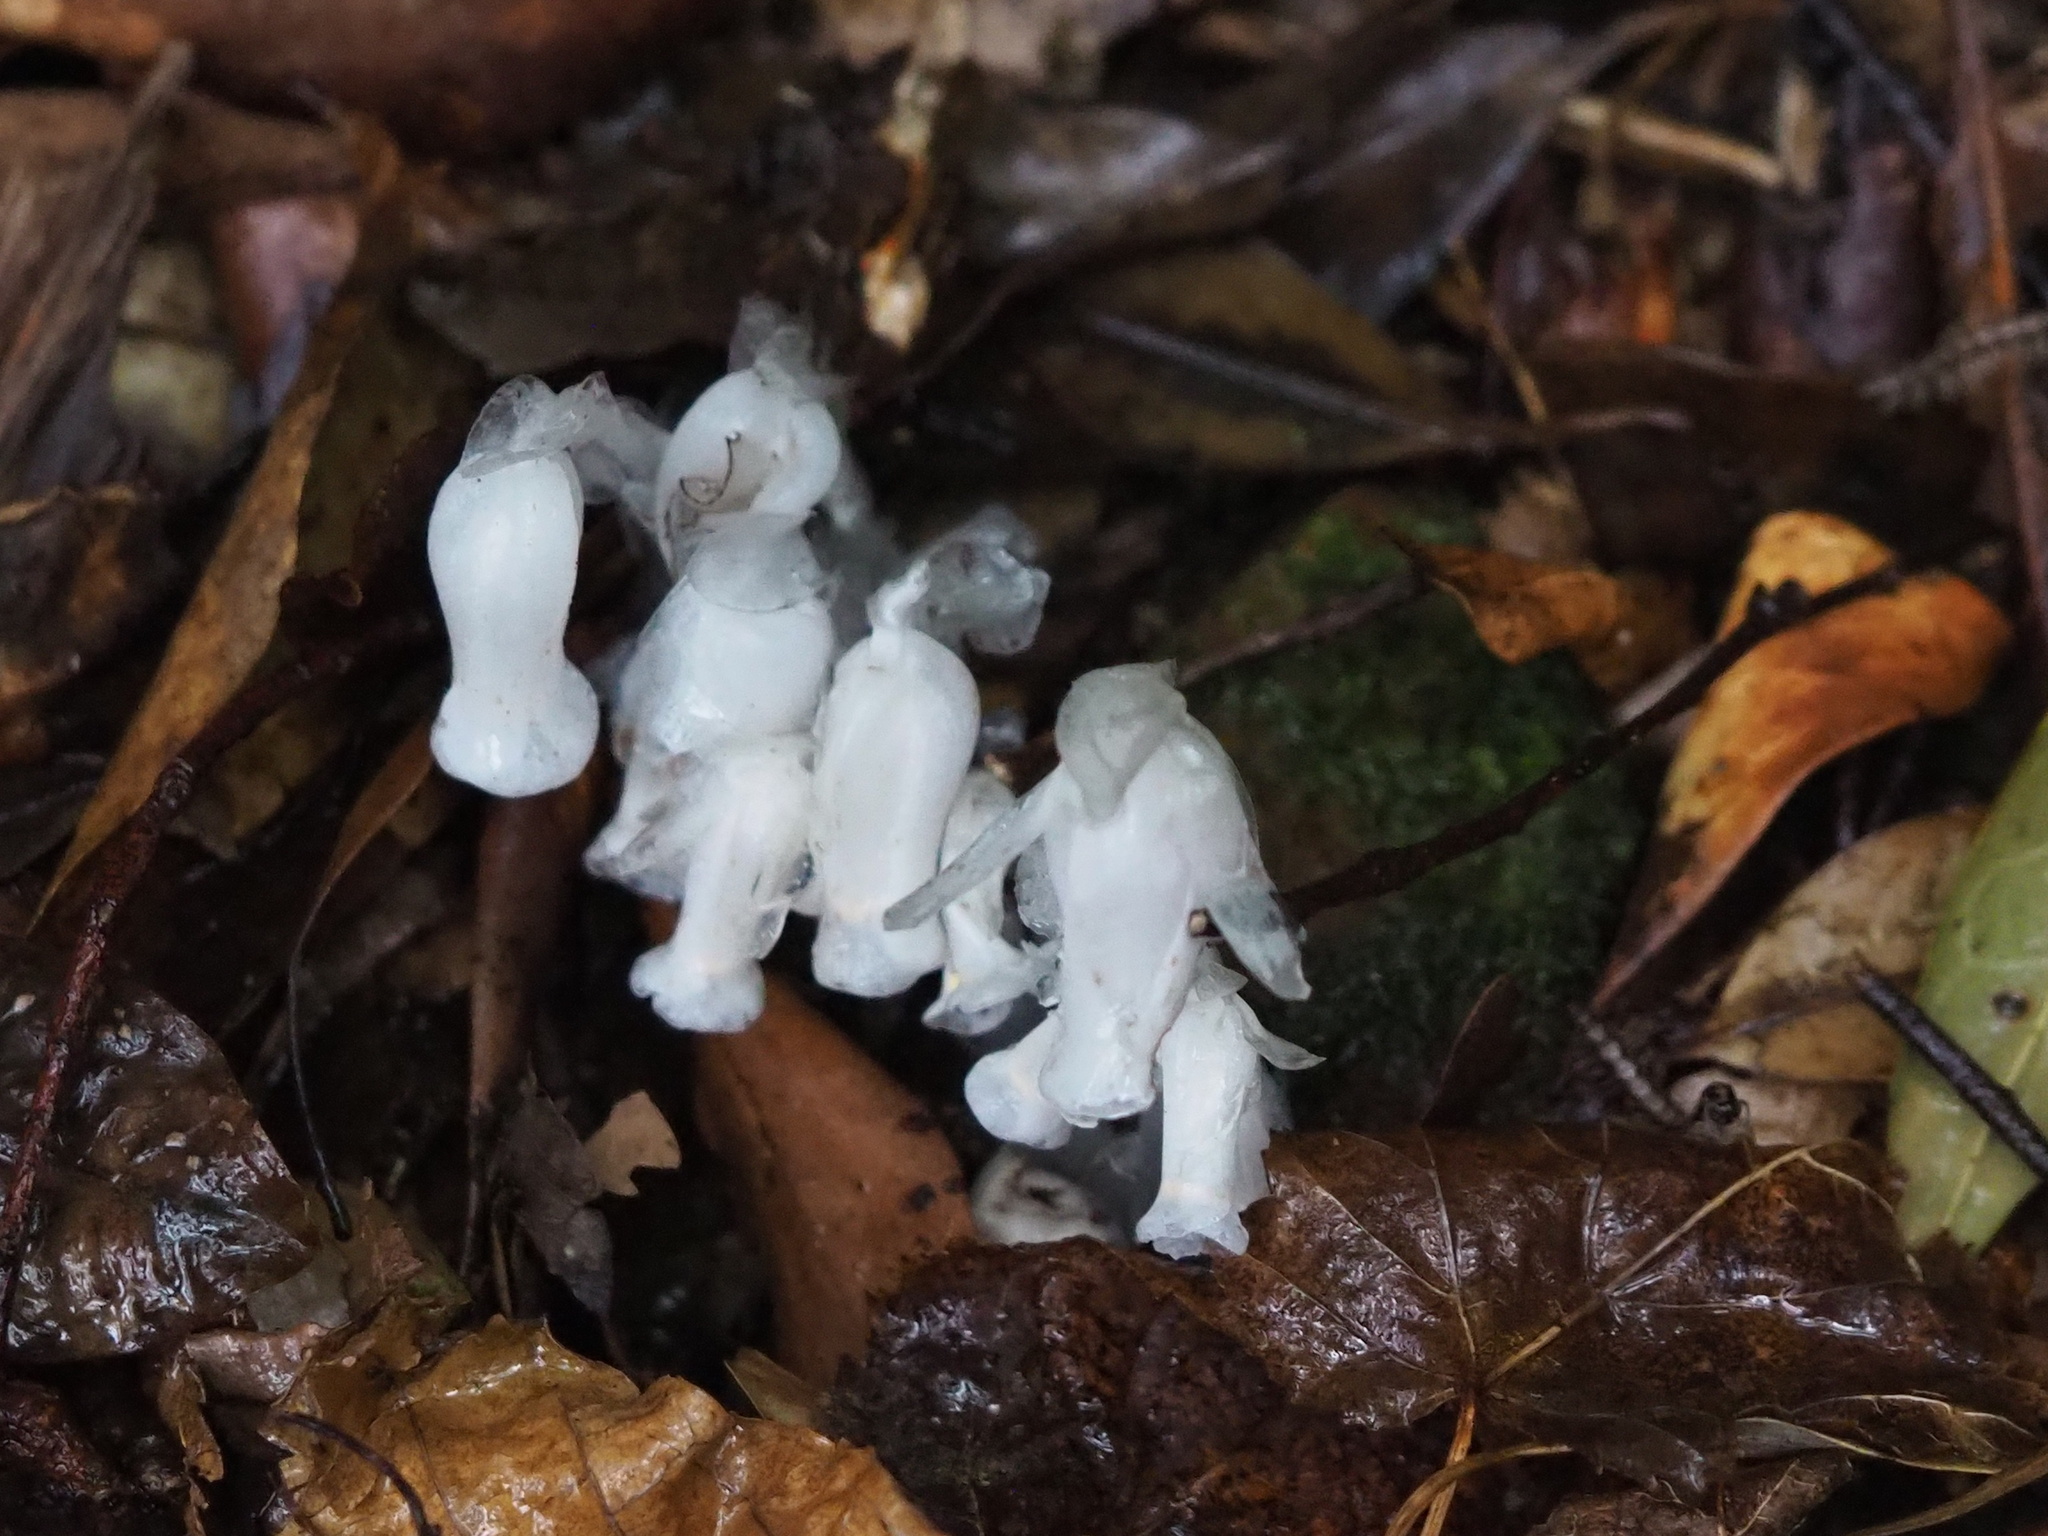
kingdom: Plantae
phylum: Tracheophyta
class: Magnoliopsida
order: Ericales
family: Ericaceae
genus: Monotropastrum
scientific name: Monotropastrum humile
